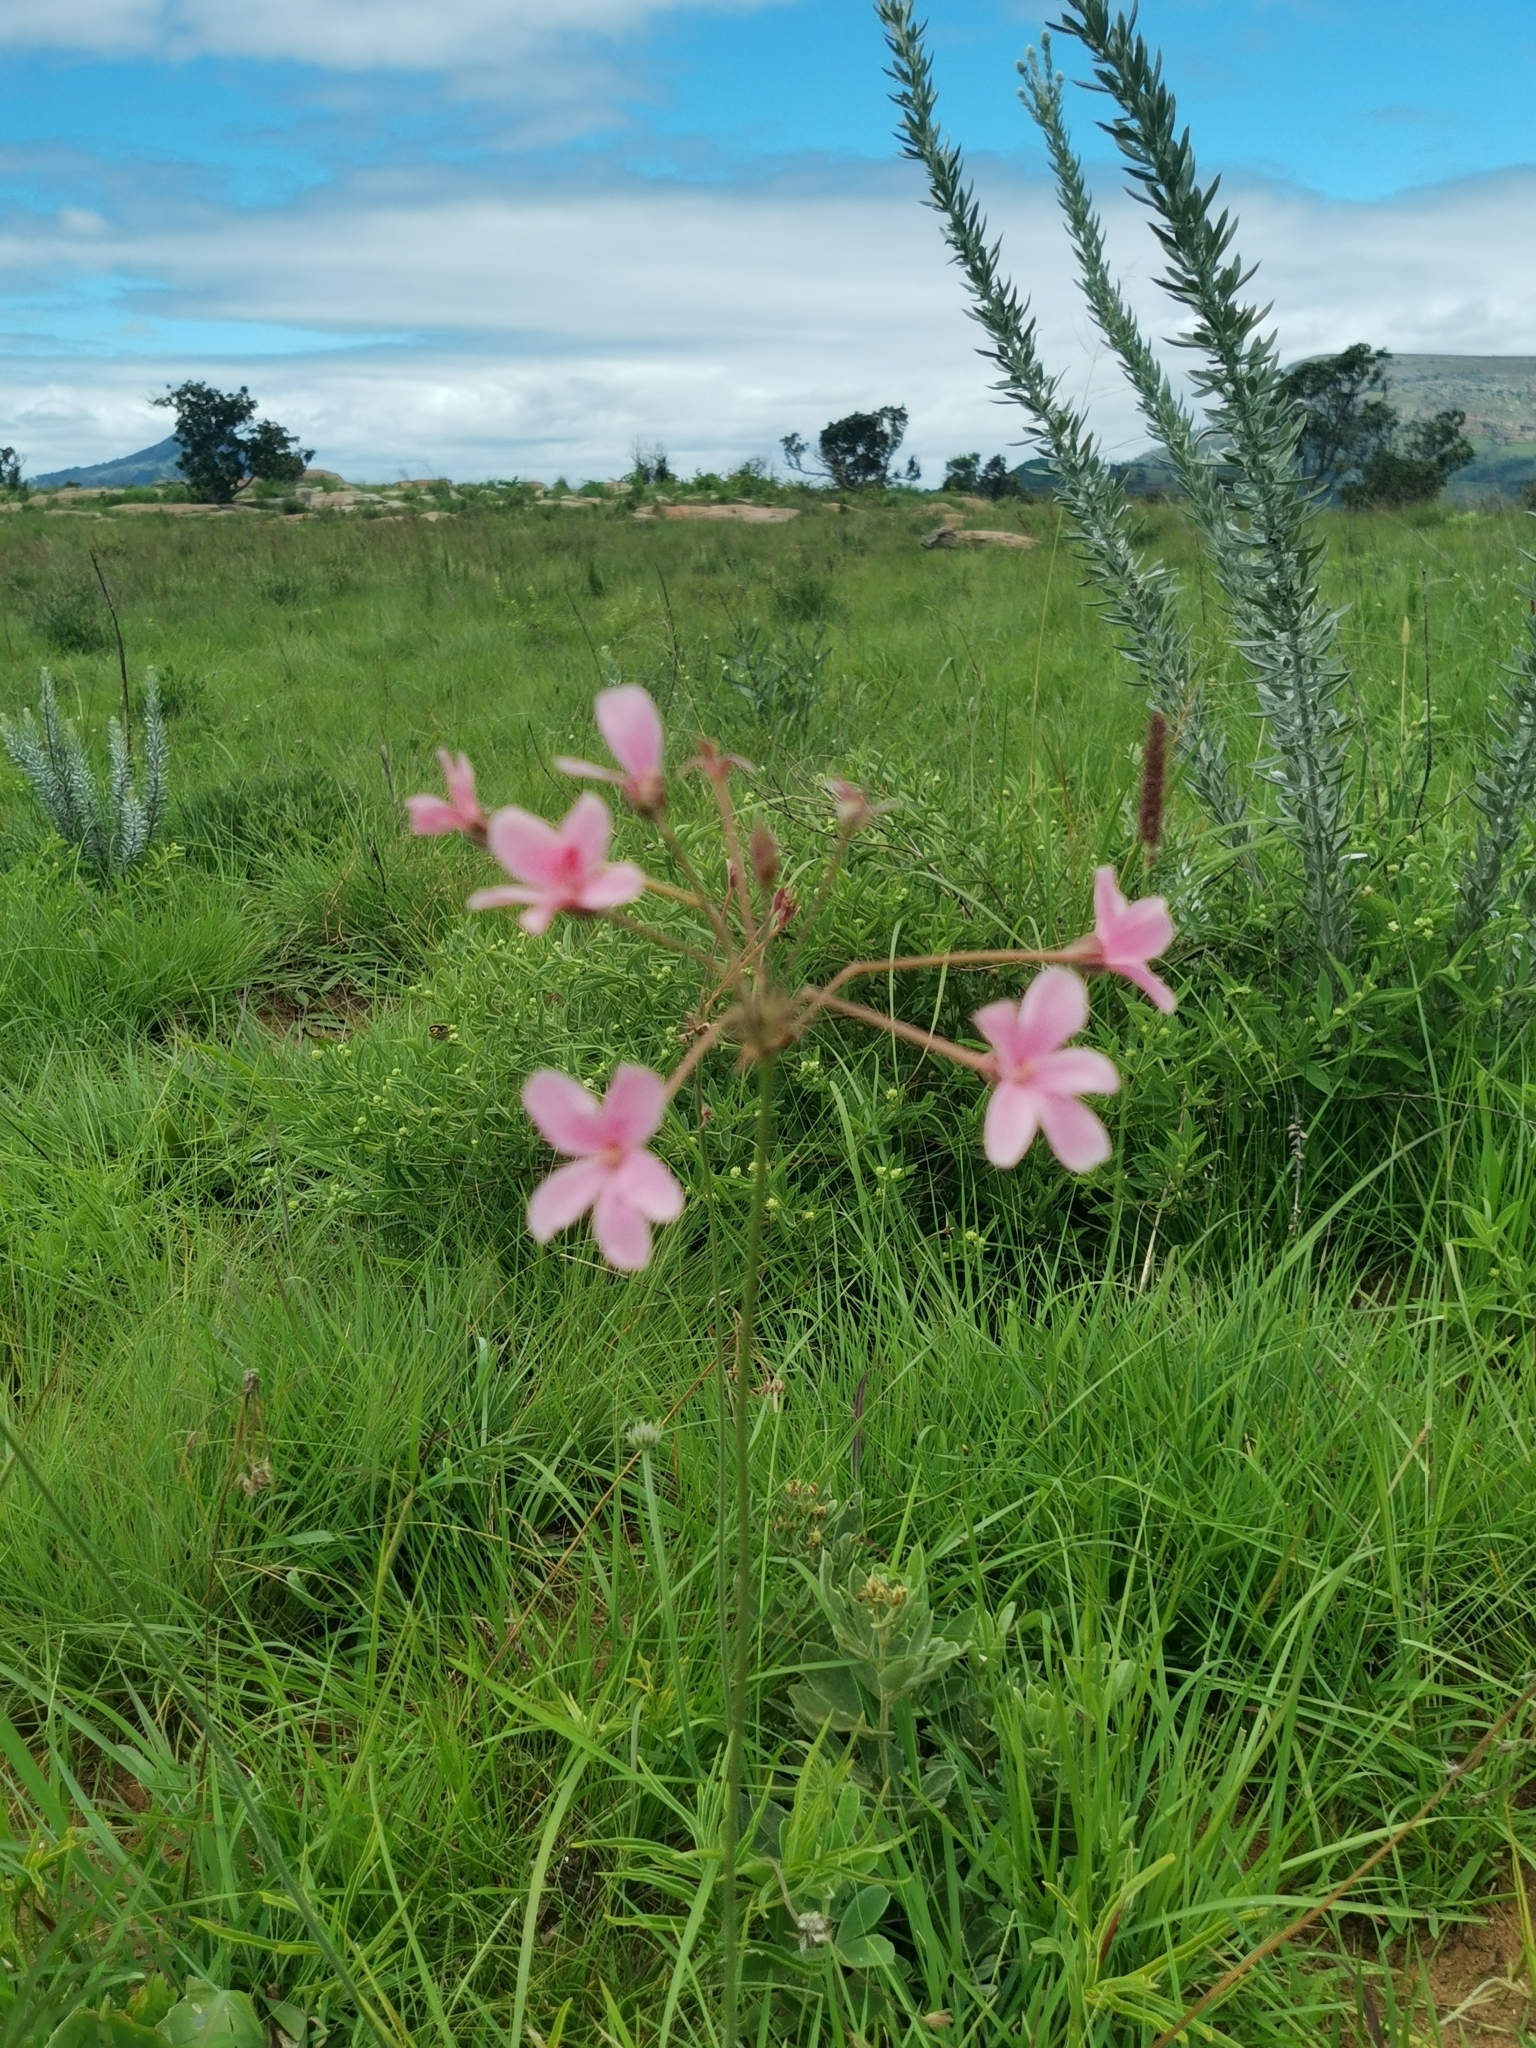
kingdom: Plantae
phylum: Tracheophyta
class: Magnoliopsida
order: Geraniales
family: Geraniaceae
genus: Pelargonium
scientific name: Pelargonium luridum
